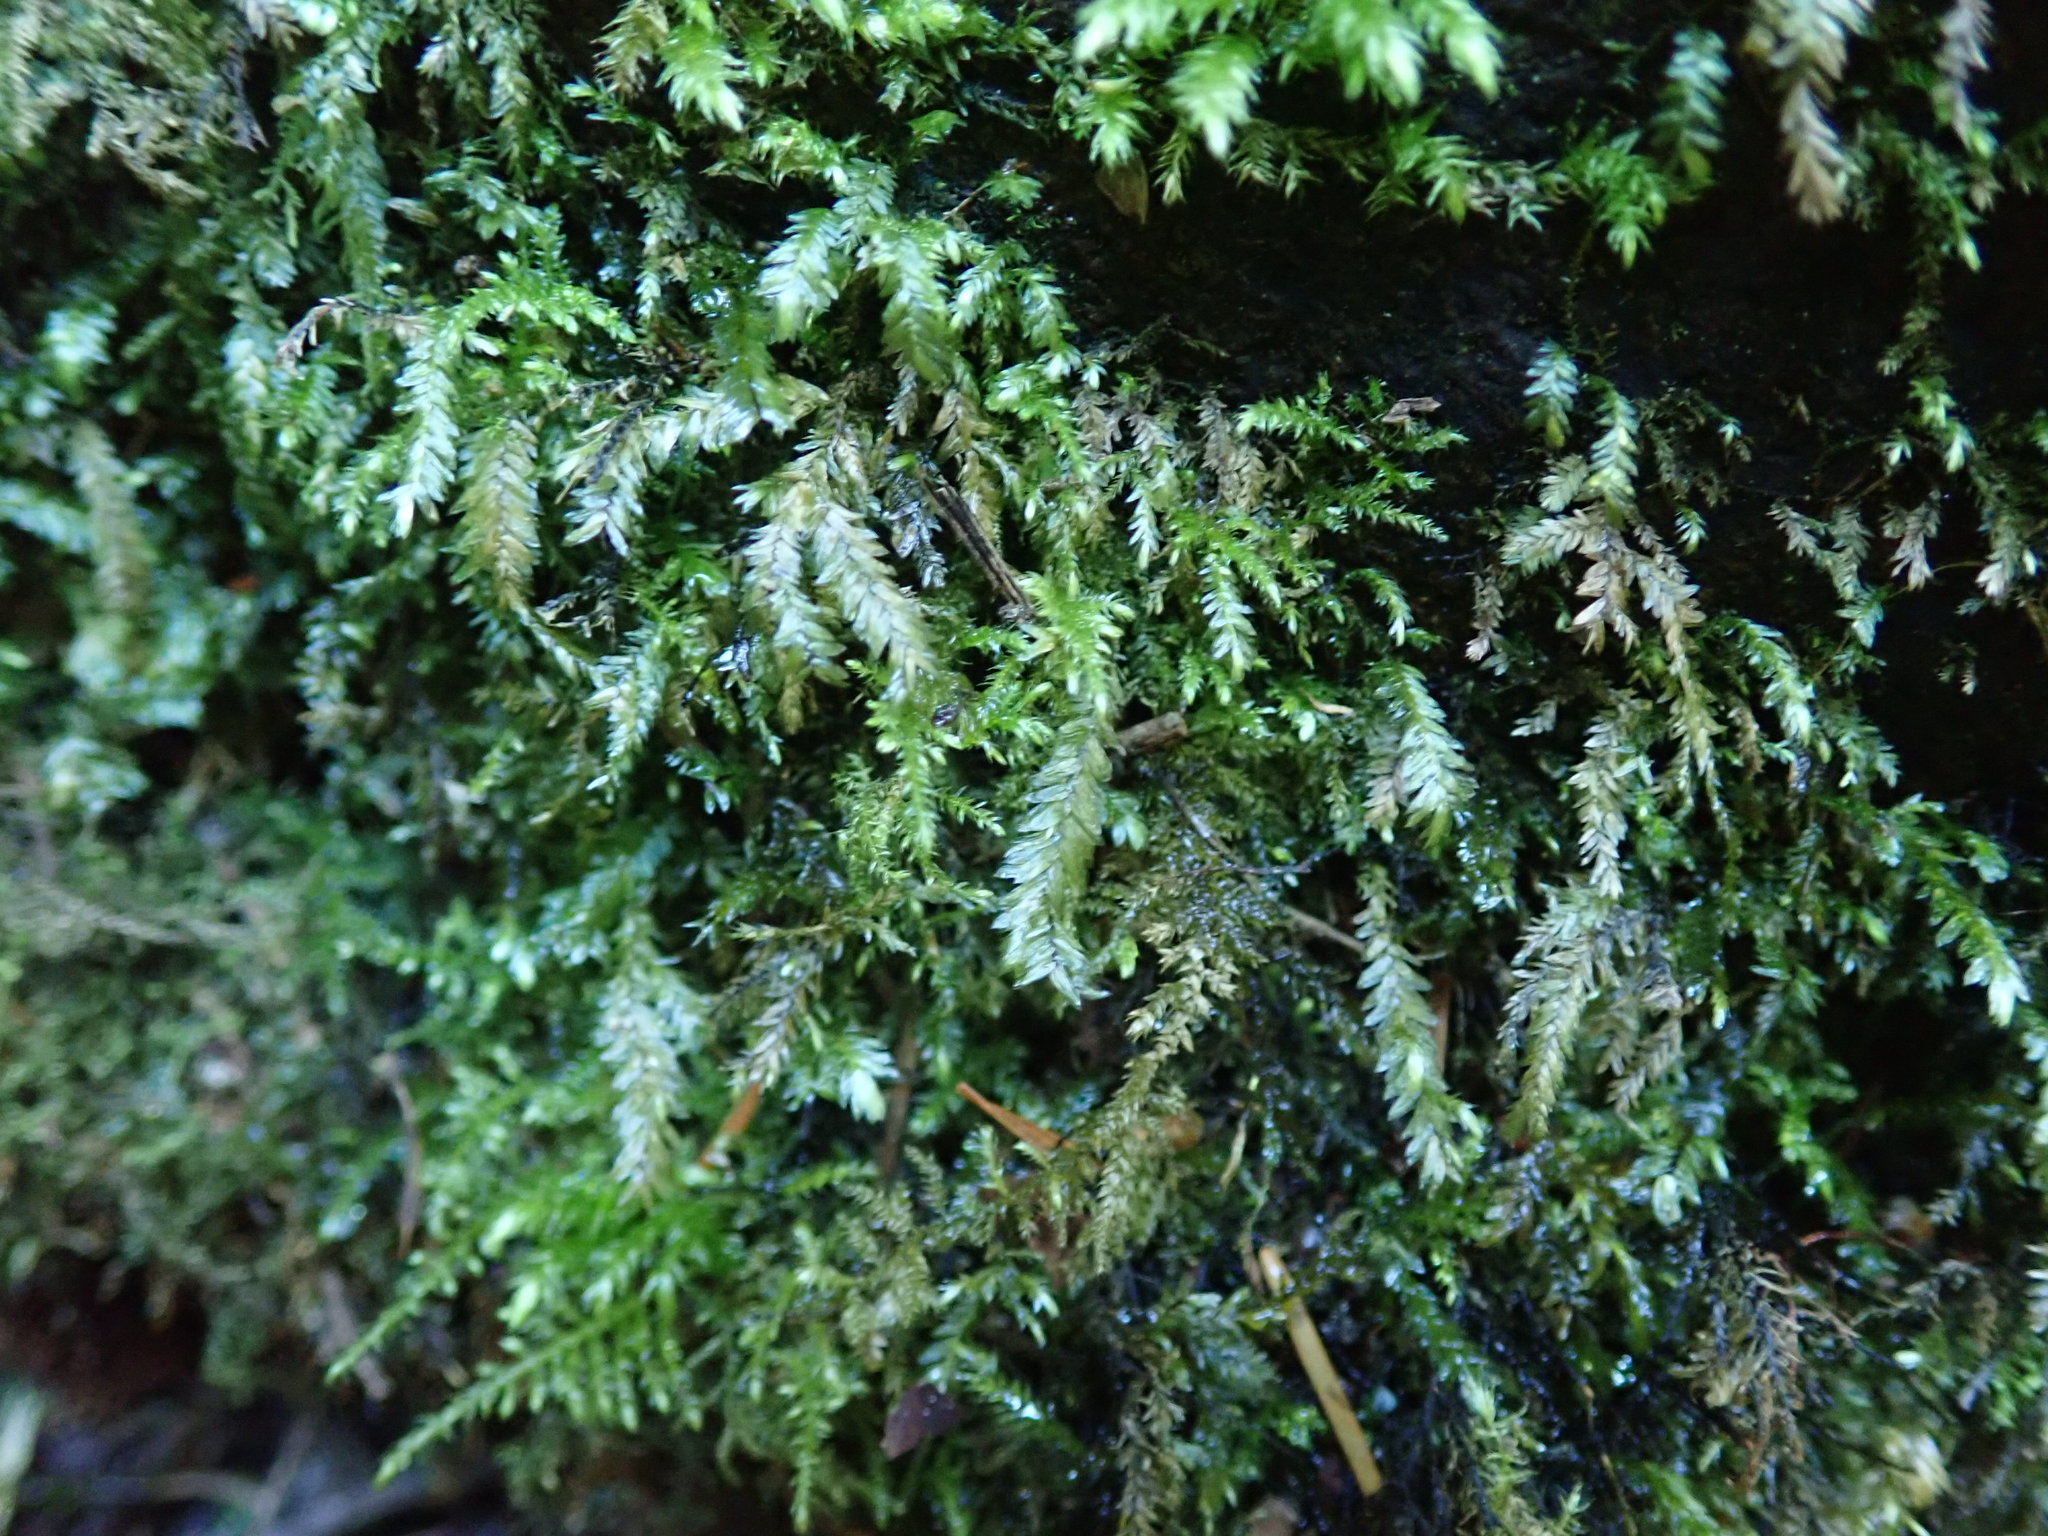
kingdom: Plantae
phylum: Bryophyta
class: Bryopsida
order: Hypnales
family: Neckeraceae
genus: Dannorrisia
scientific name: Dannorrisia bigelovii
